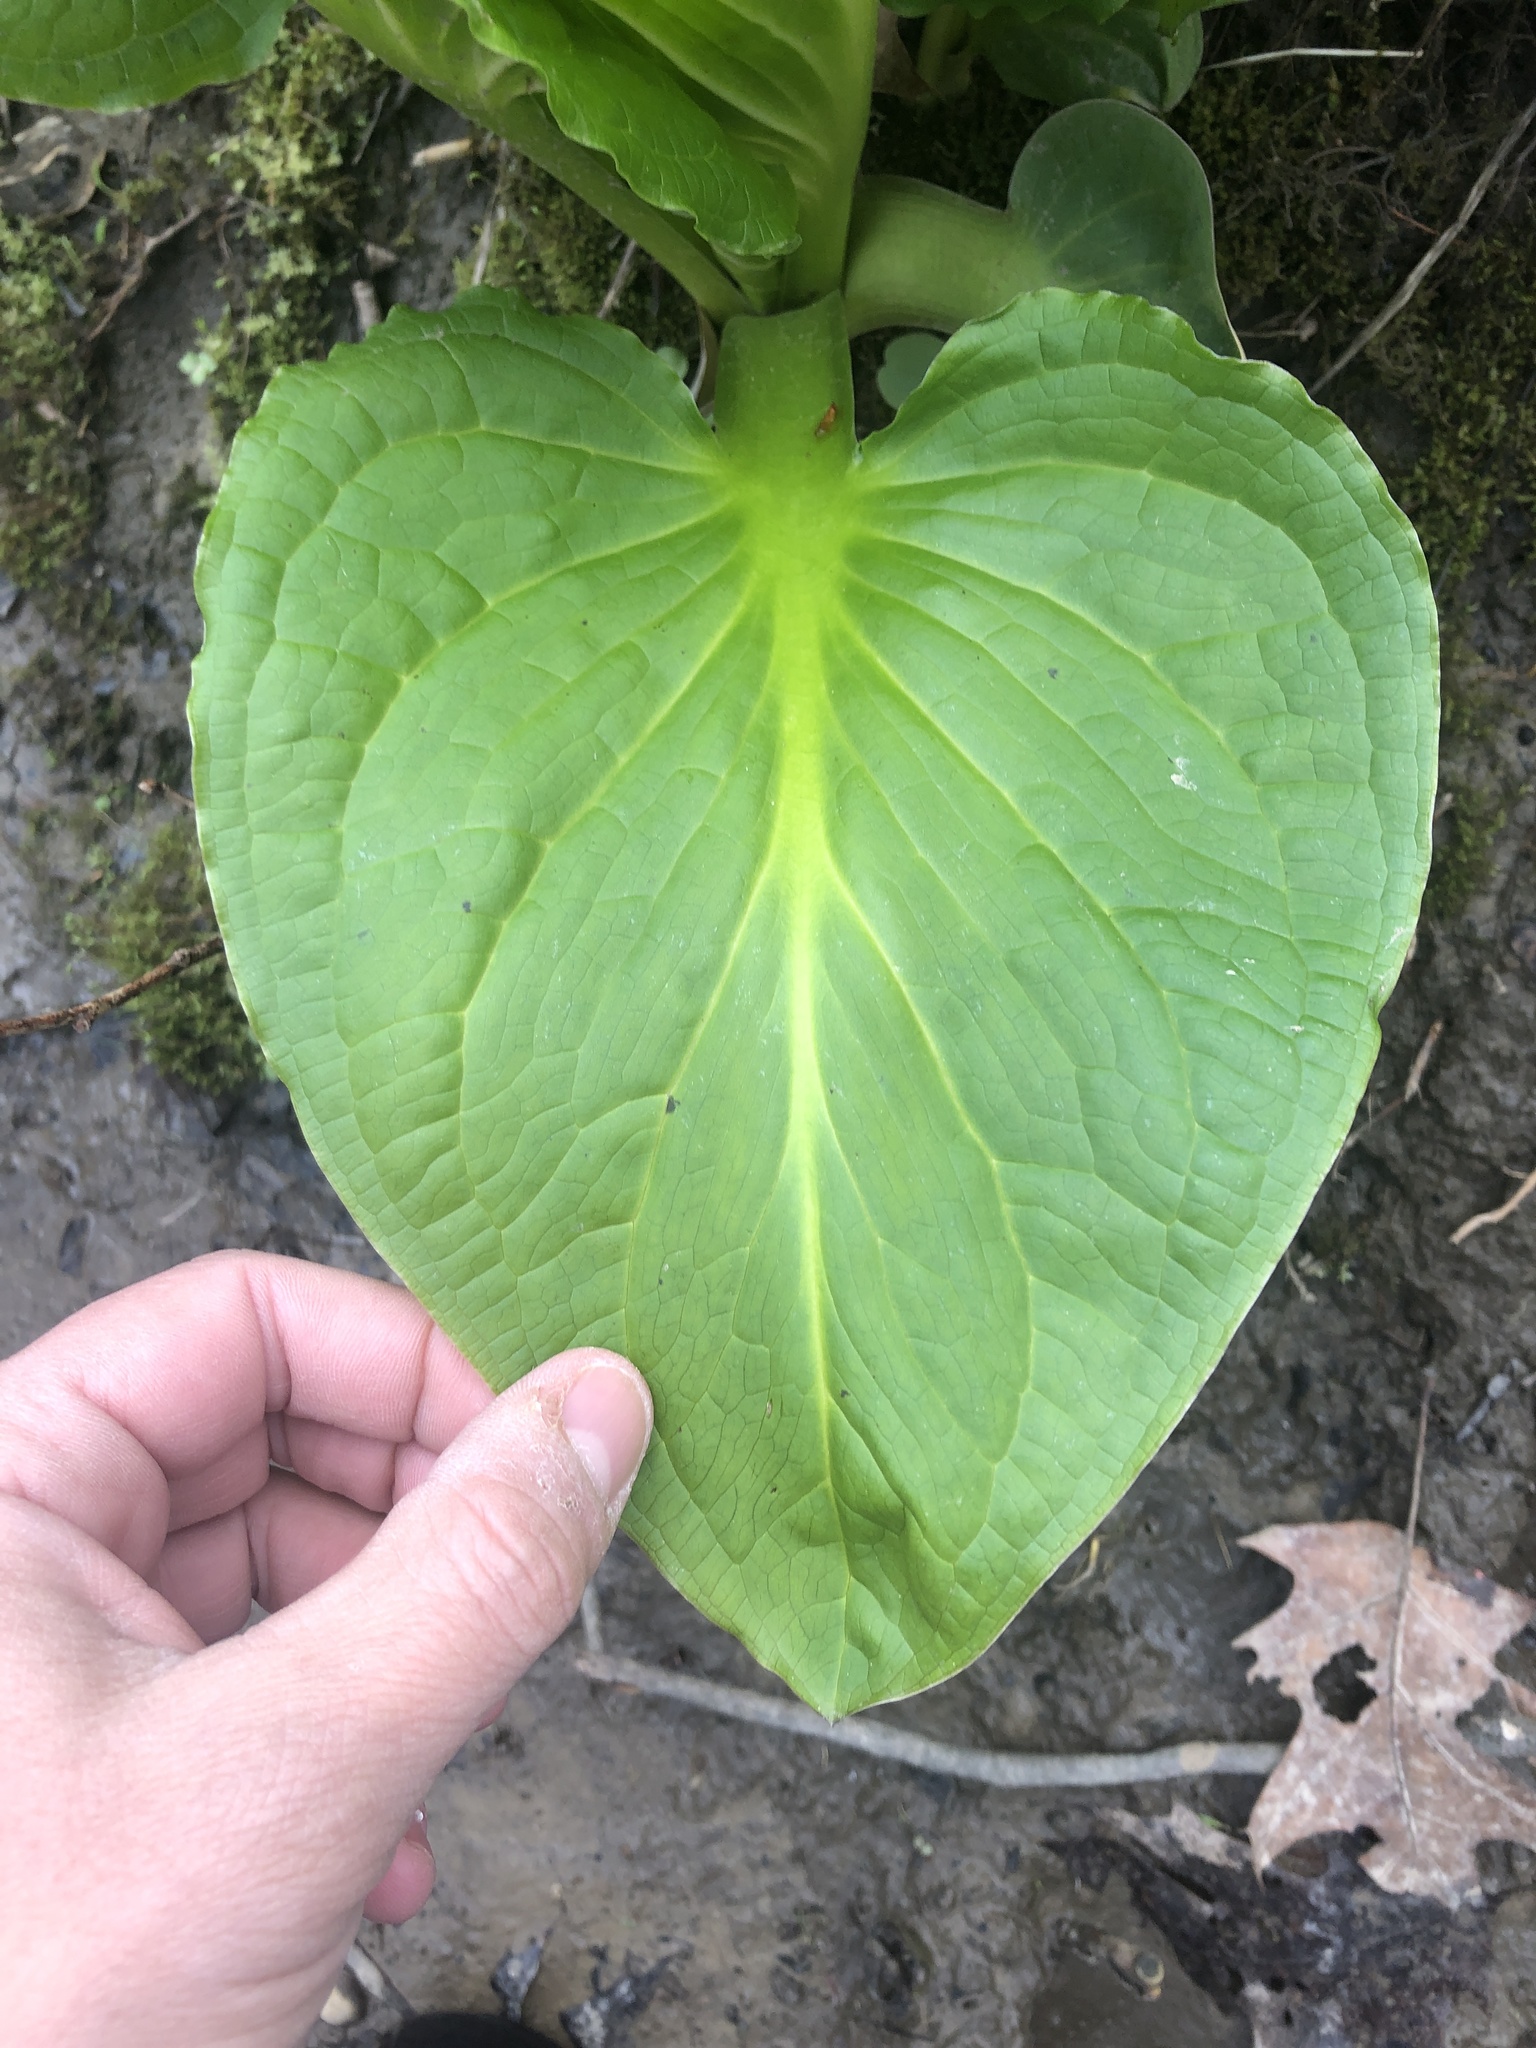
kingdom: Plantae
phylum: Tracheophyta
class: Liliopsida
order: Alismatales
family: Araceae
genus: Symplocarpus
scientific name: Symplocarpus foetidus
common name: Eastern skunk cabbage
